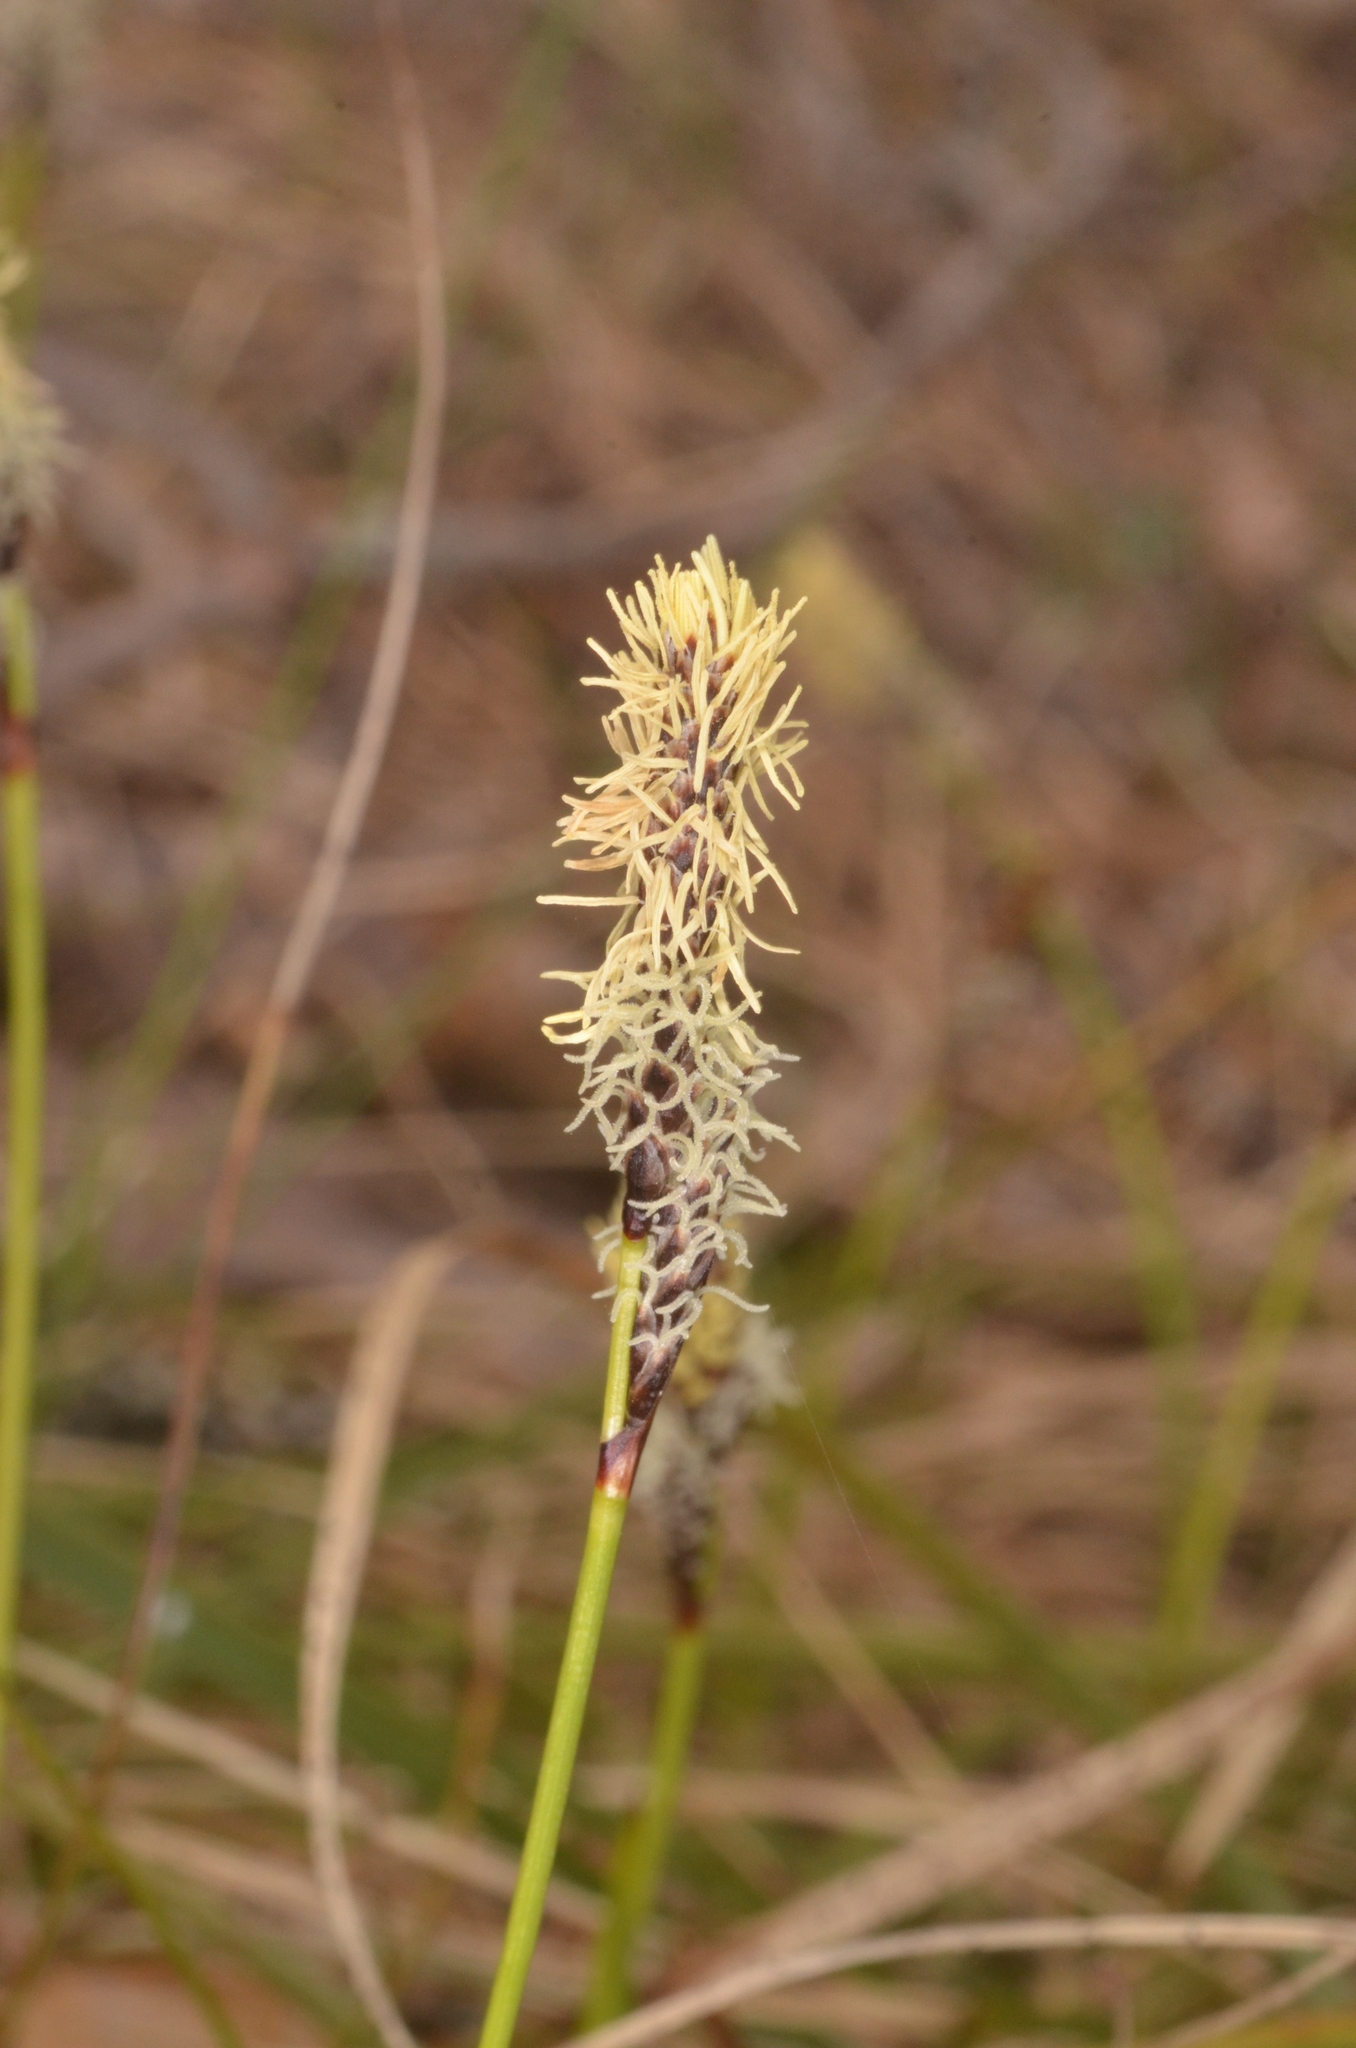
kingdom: Plantae
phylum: Tracheophyta
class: Liliopsida
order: Poales
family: Cyperaceae
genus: Carex
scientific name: Carex ericetorum
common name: Rare spring-sedge
